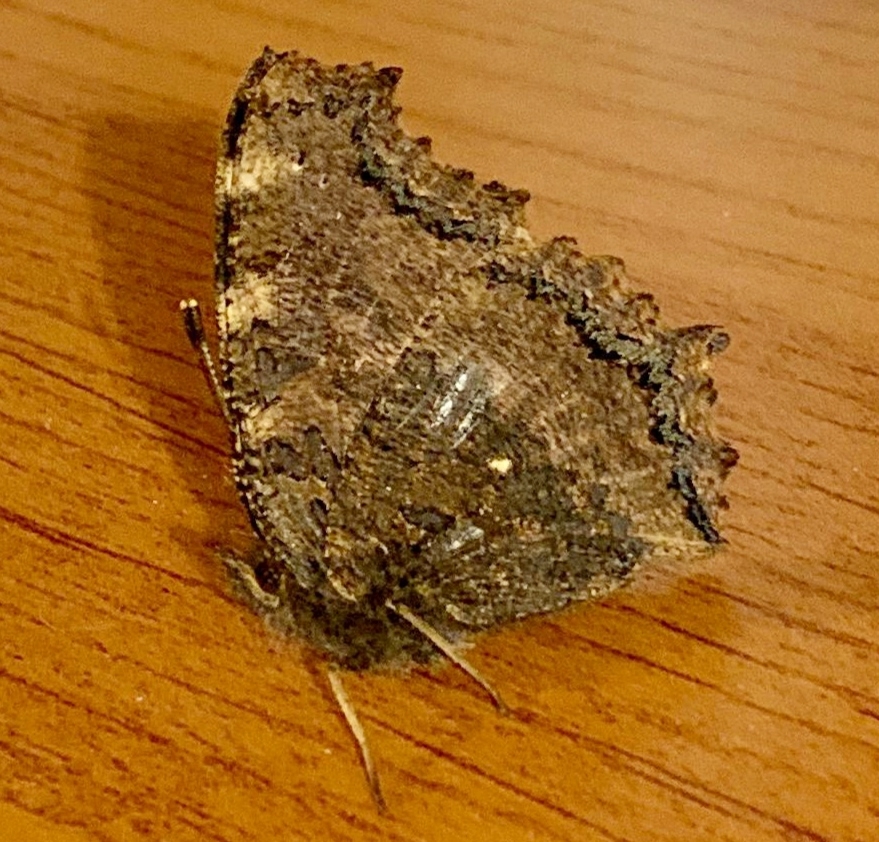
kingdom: Animalia
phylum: Arthropoda
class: Insecta
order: Lepidoptera
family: Nymphalidae
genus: Nymphalis
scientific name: Nymphalis xanthomelas
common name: Scarce tortoiseshell
